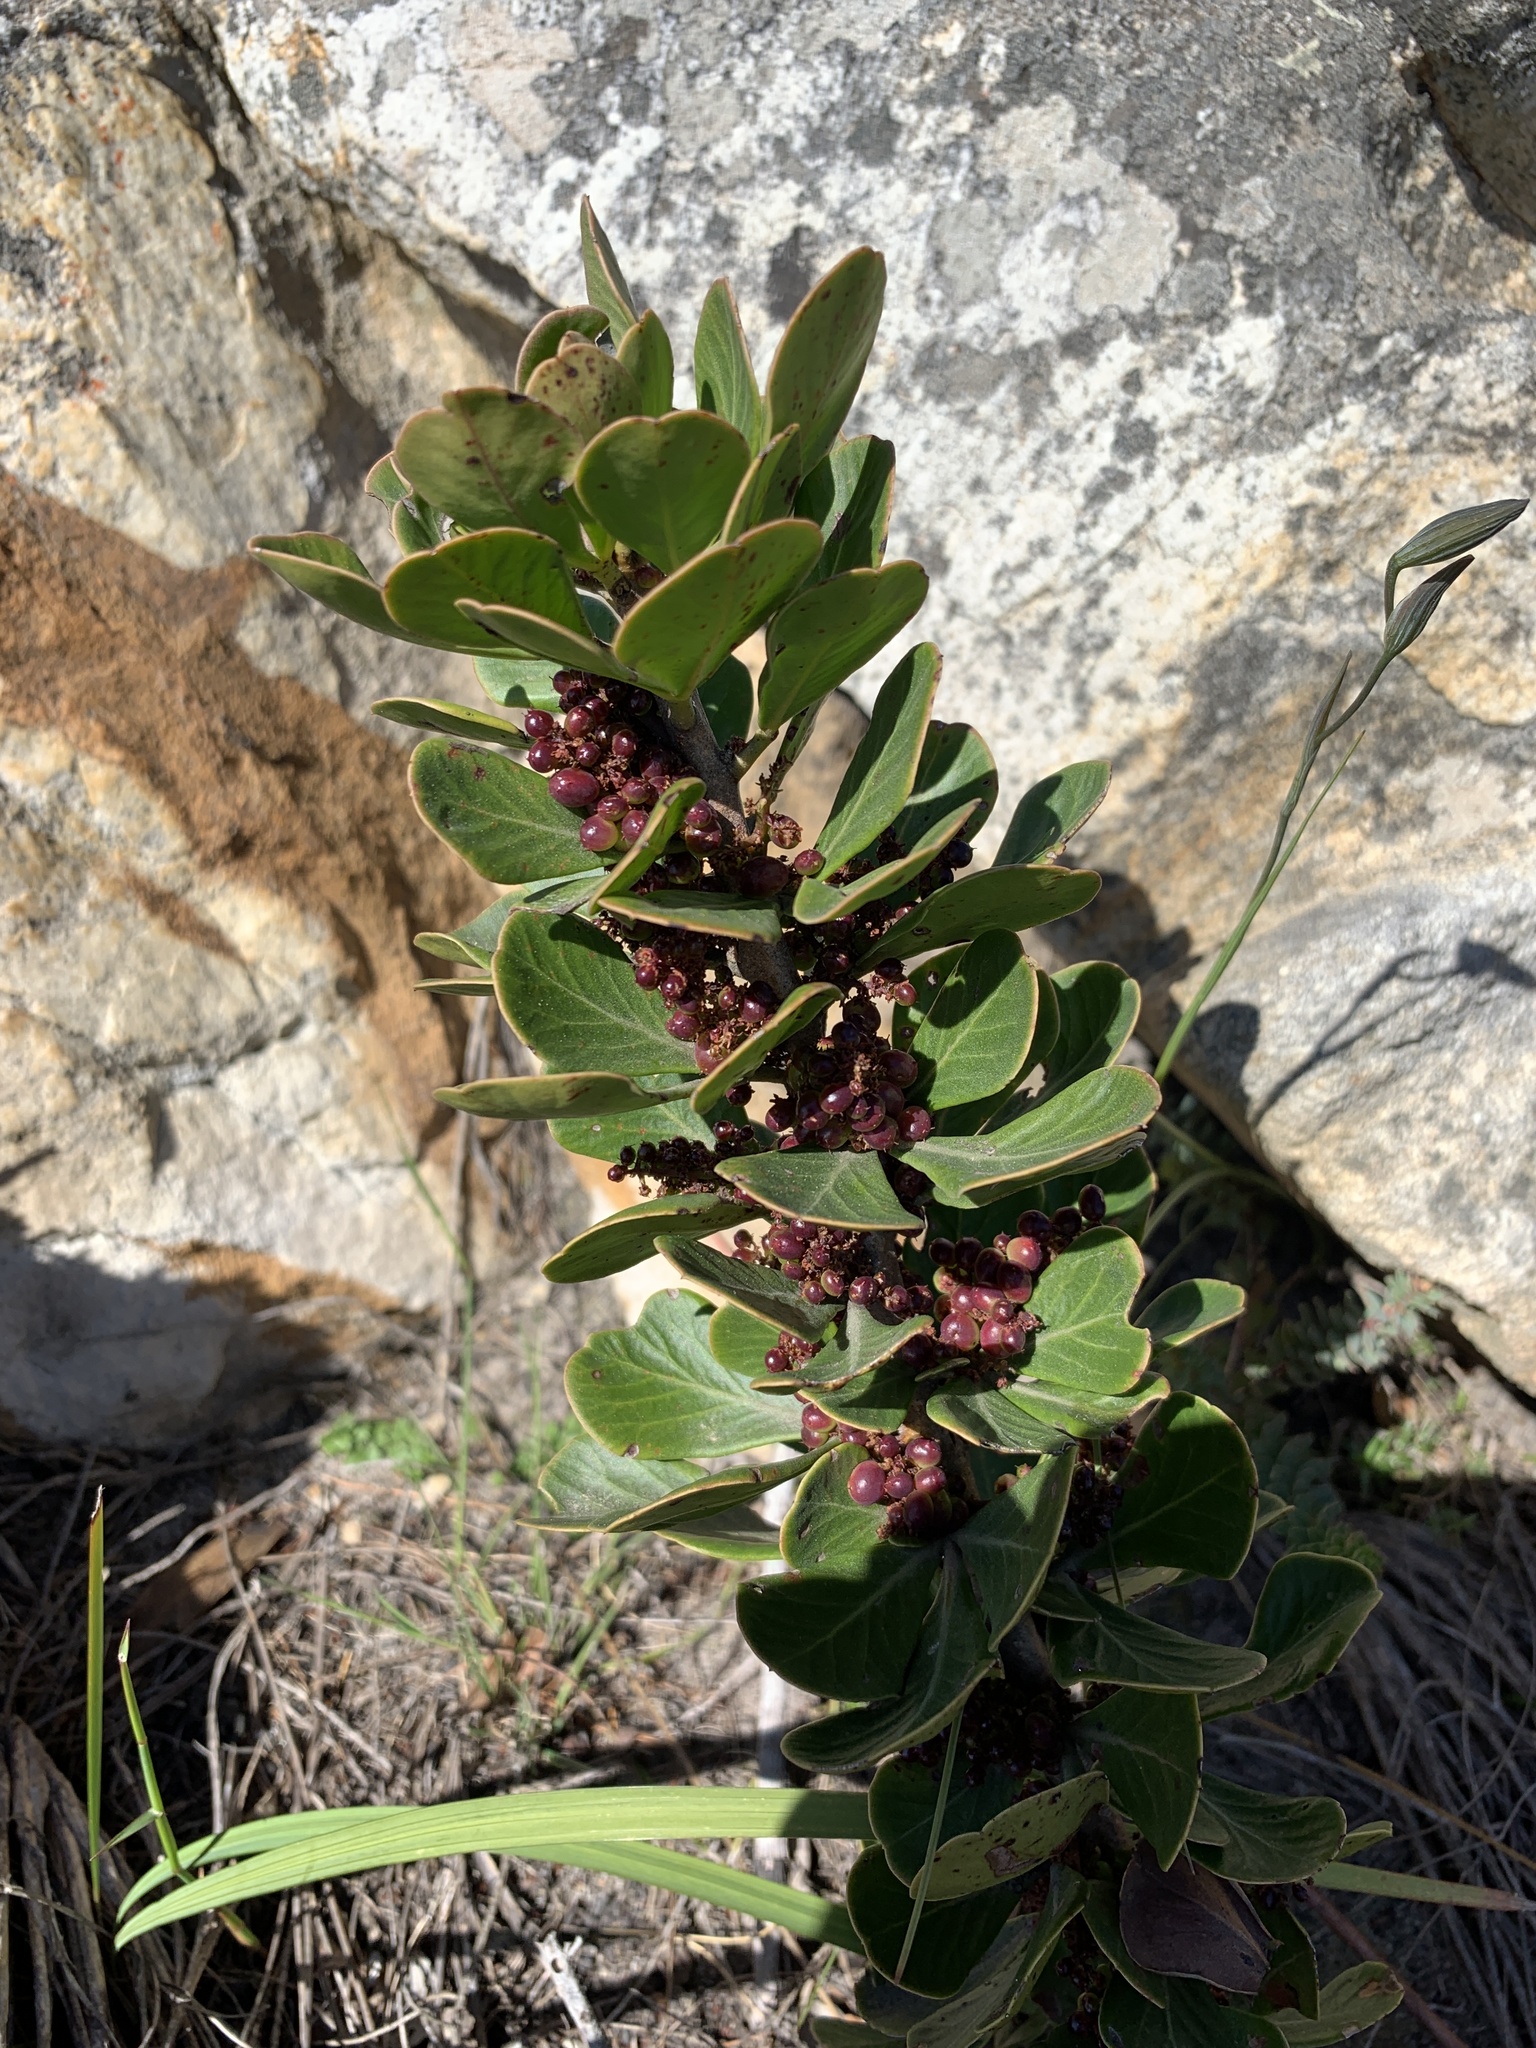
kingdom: Plantae
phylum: Tracheophyta
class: Magnoliopsida
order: Sapindales
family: Anacardiaceae
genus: Searsia
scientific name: Searsia scytophylla
